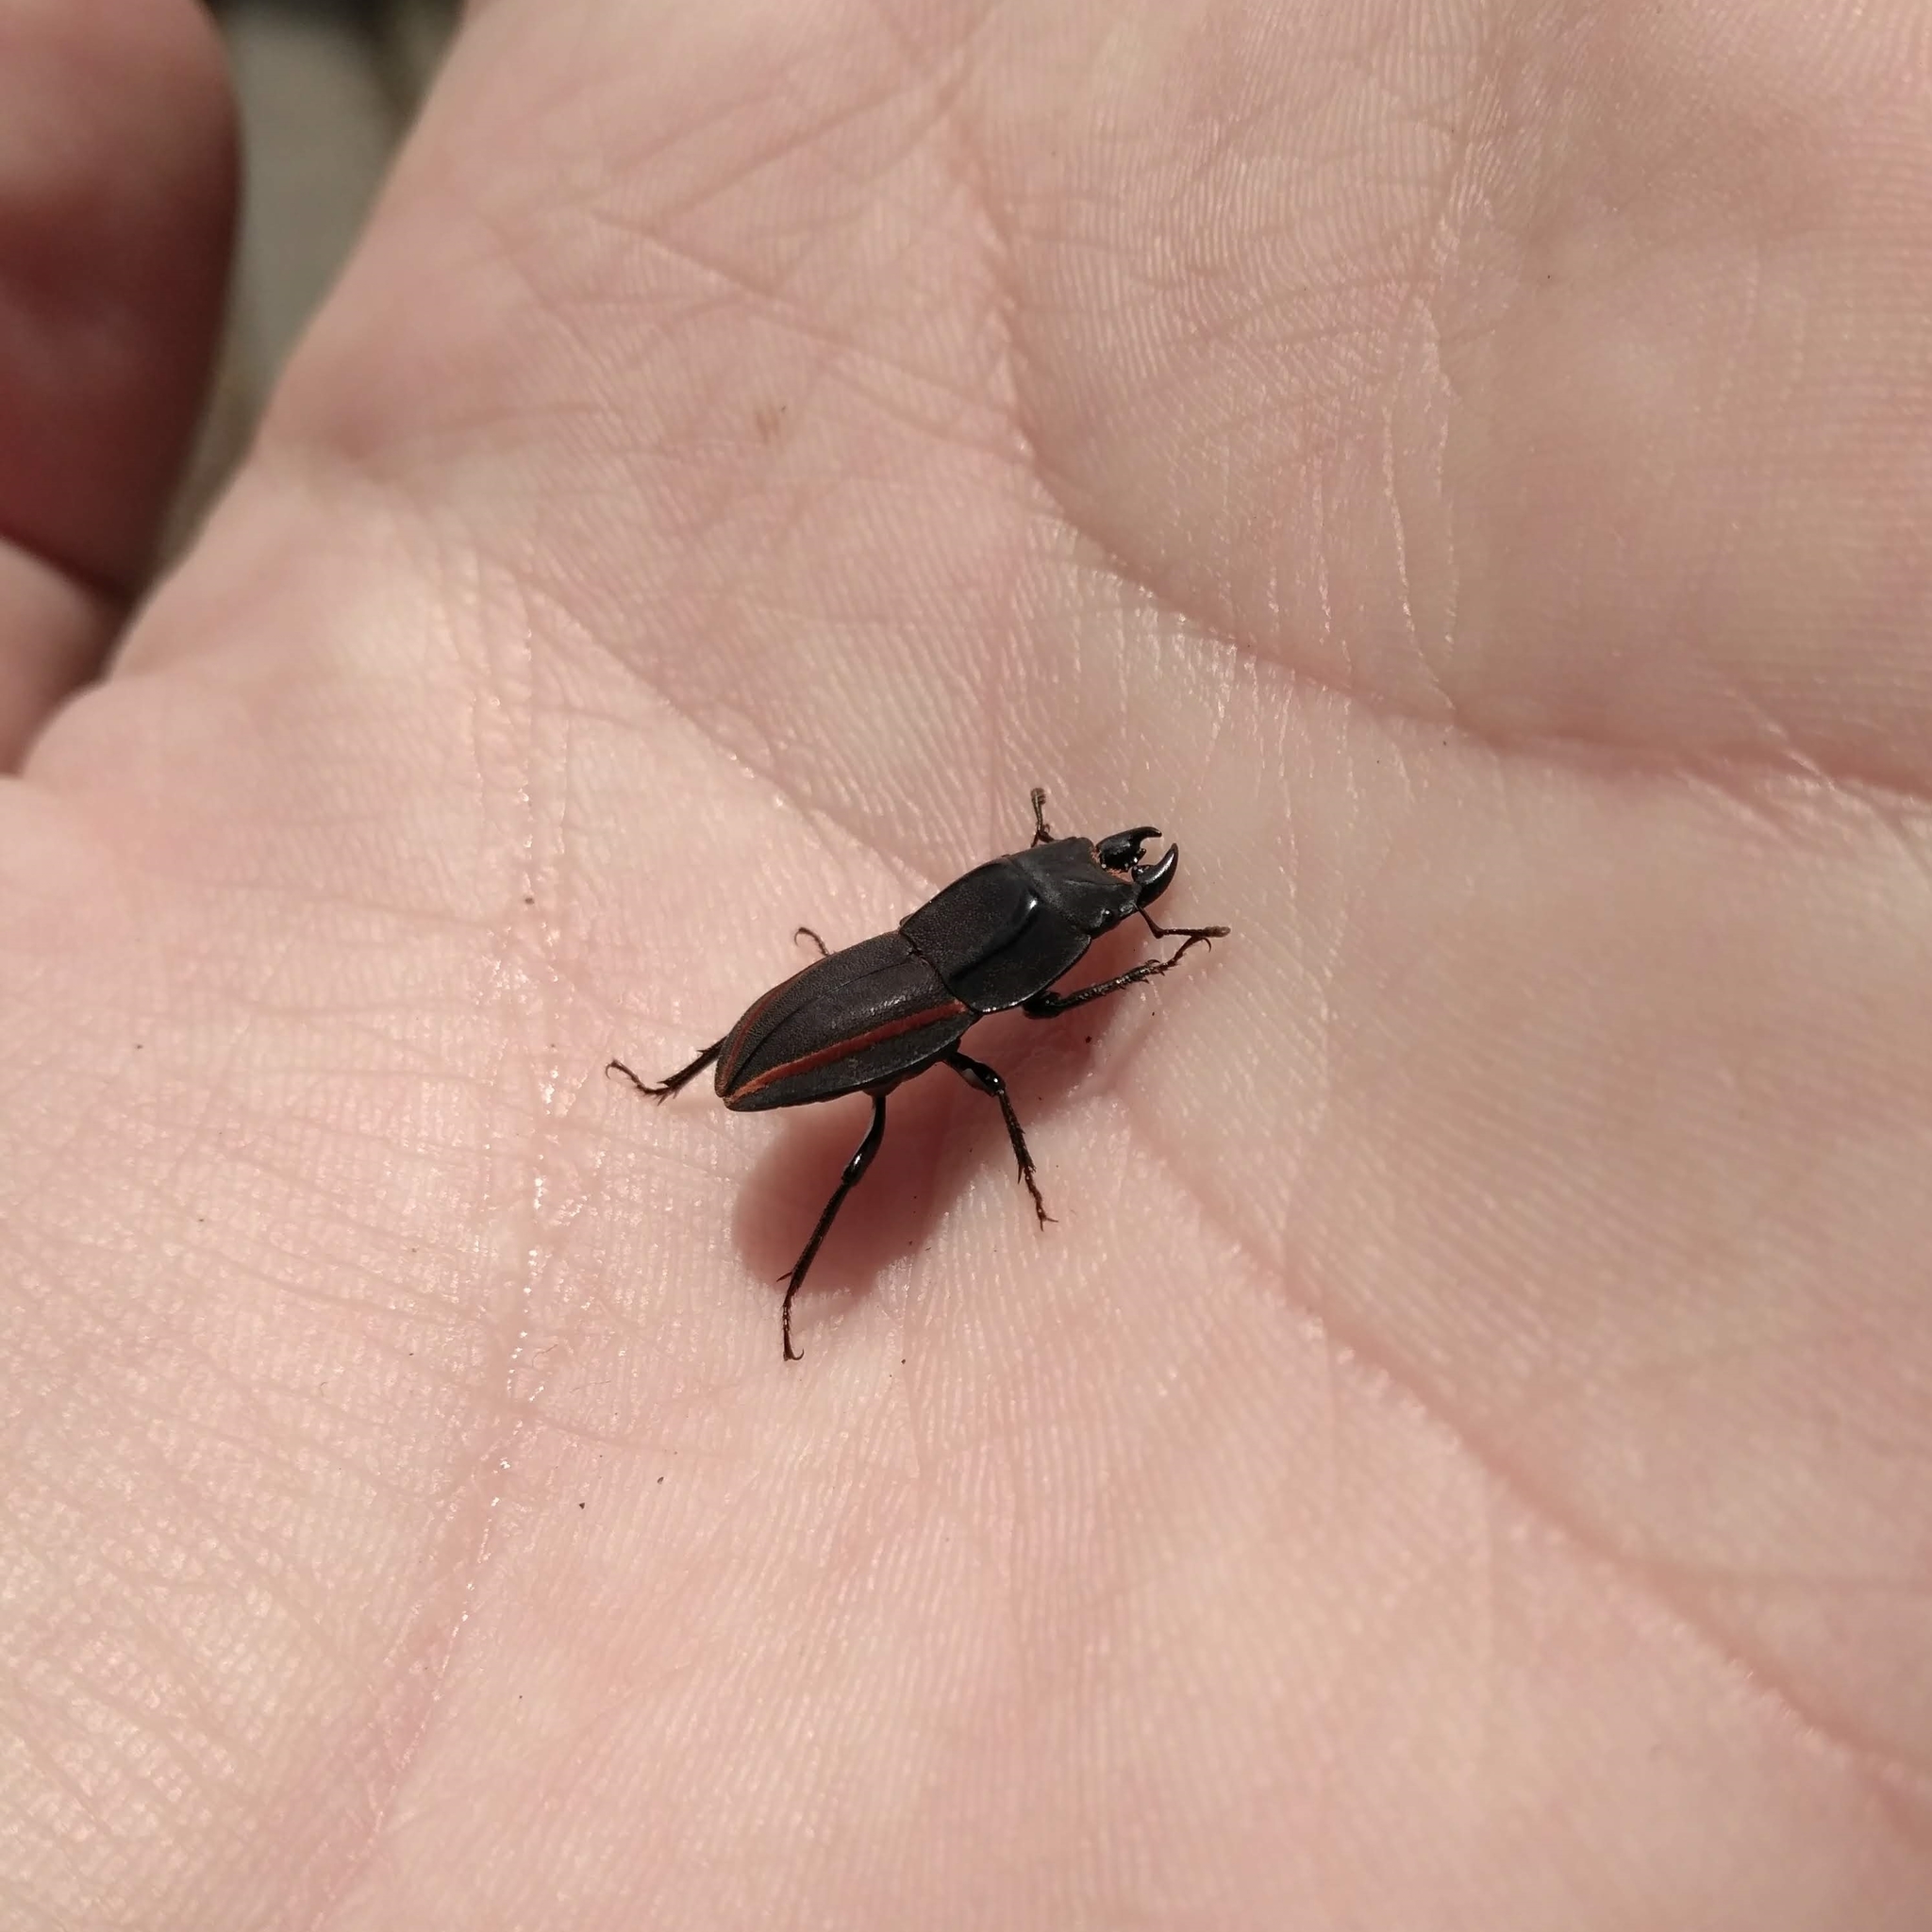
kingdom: Animalia
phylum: Arthropoda
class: Insecta
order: Coleoptera
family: Lucanidae
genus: Erichius
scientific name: Erichius vittatus
